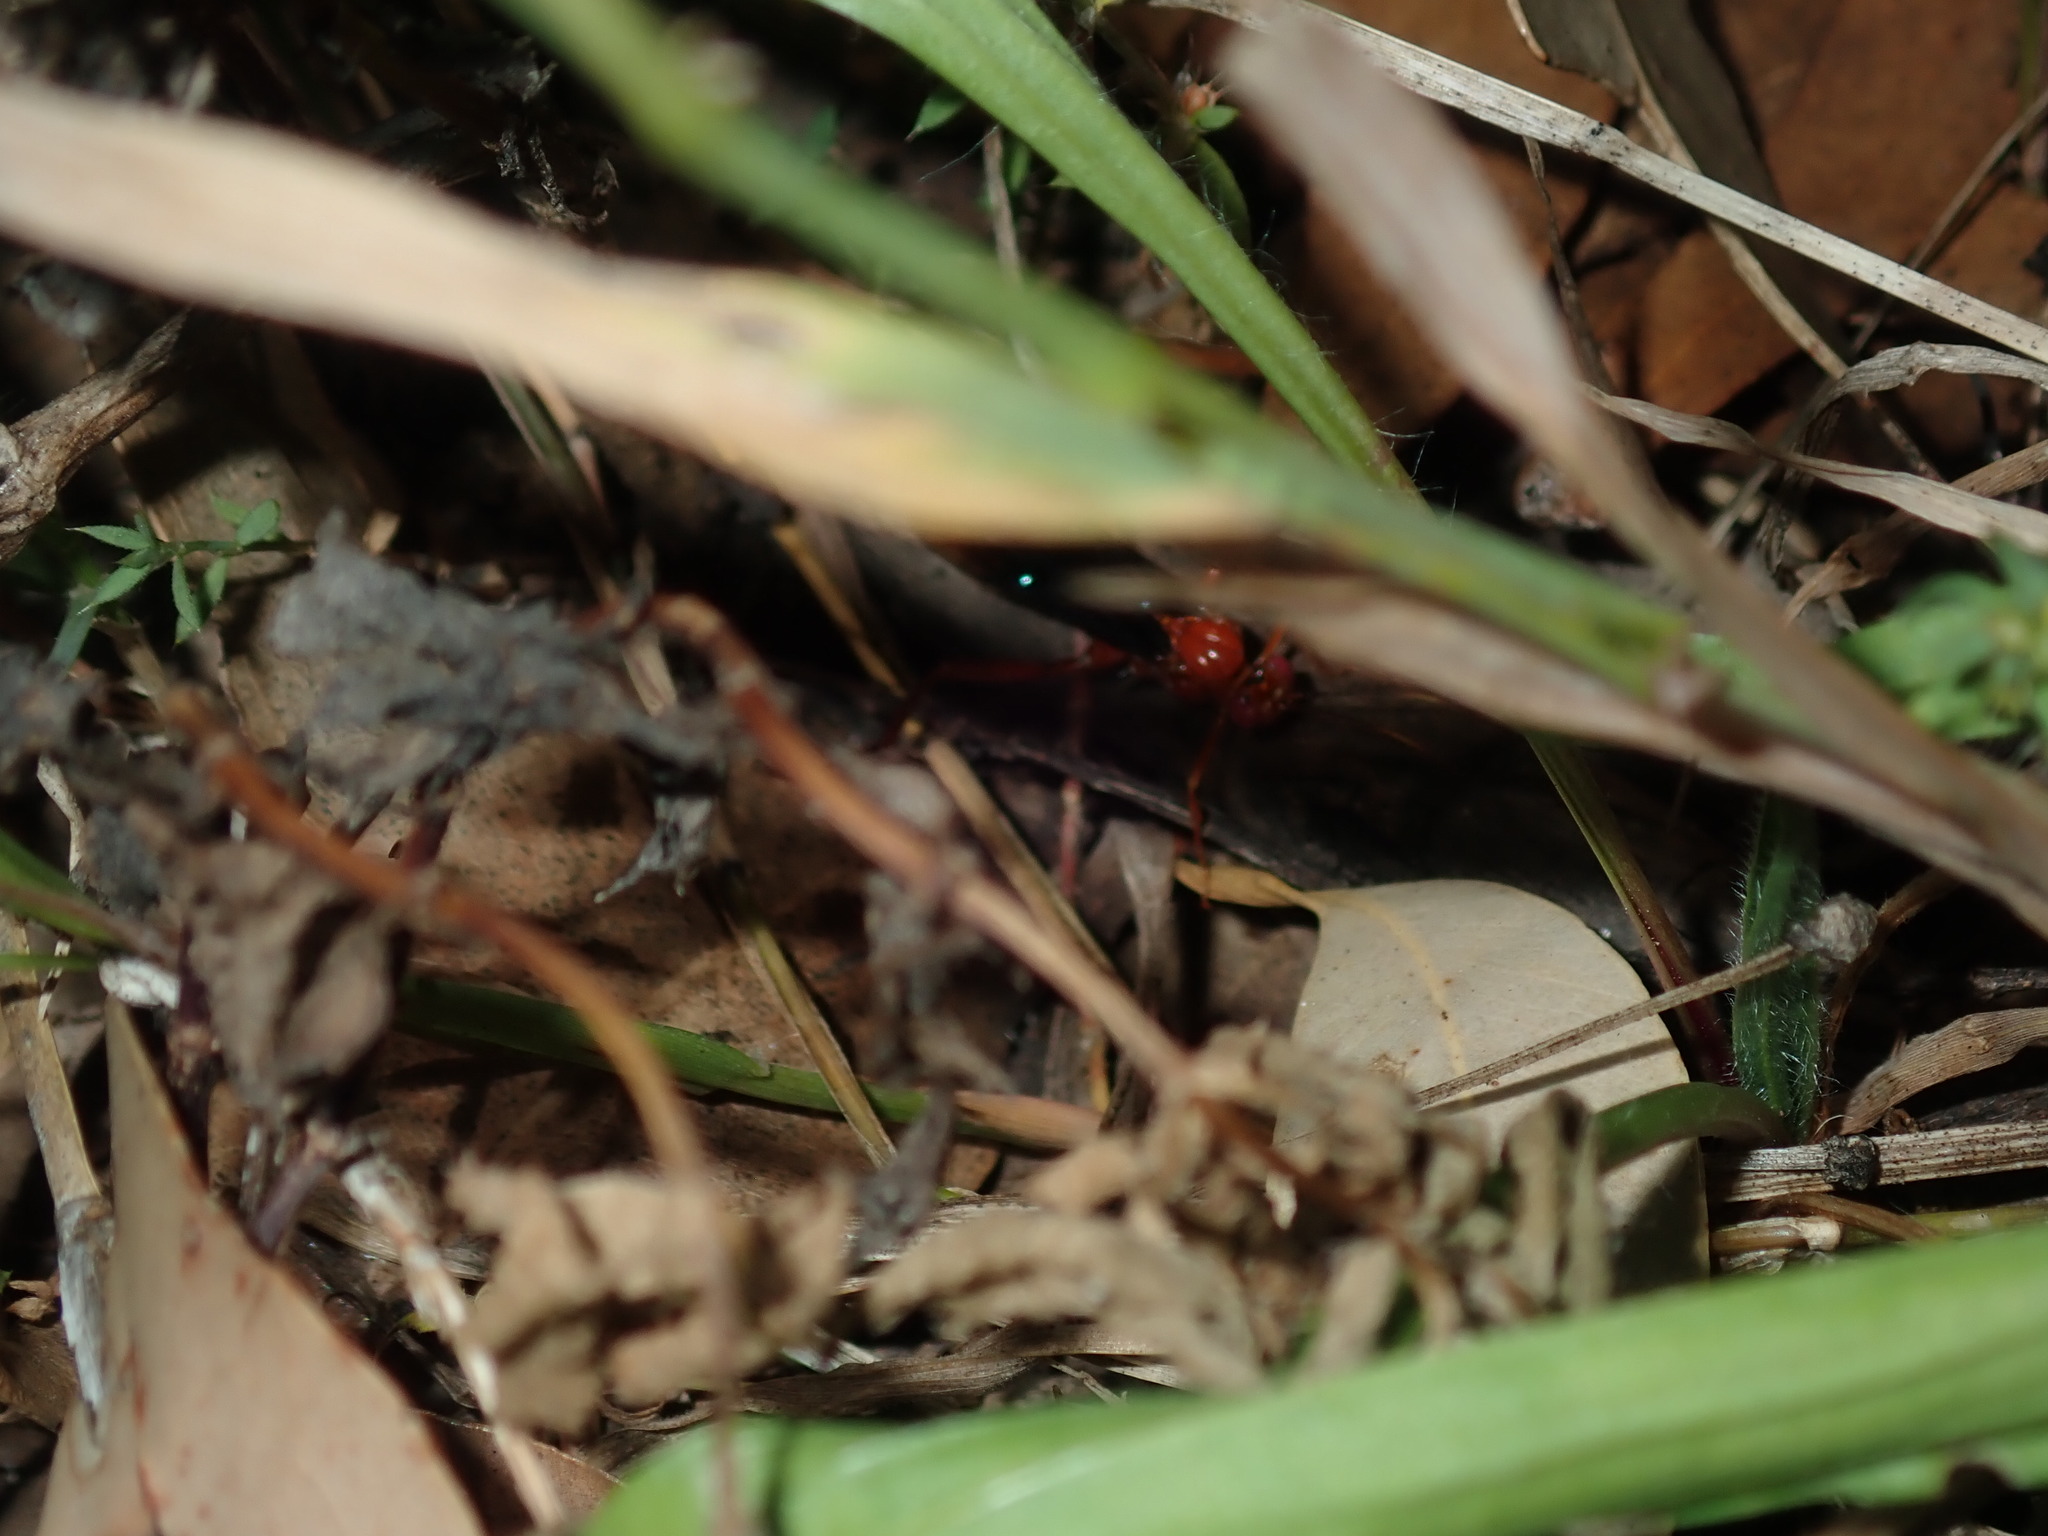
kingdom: Animalia
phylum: Arthropoda
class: Insecta
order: Hymenoptera
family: Ichneumonidae
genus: Lissopimpla
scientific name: Lissopimpla excelsa
